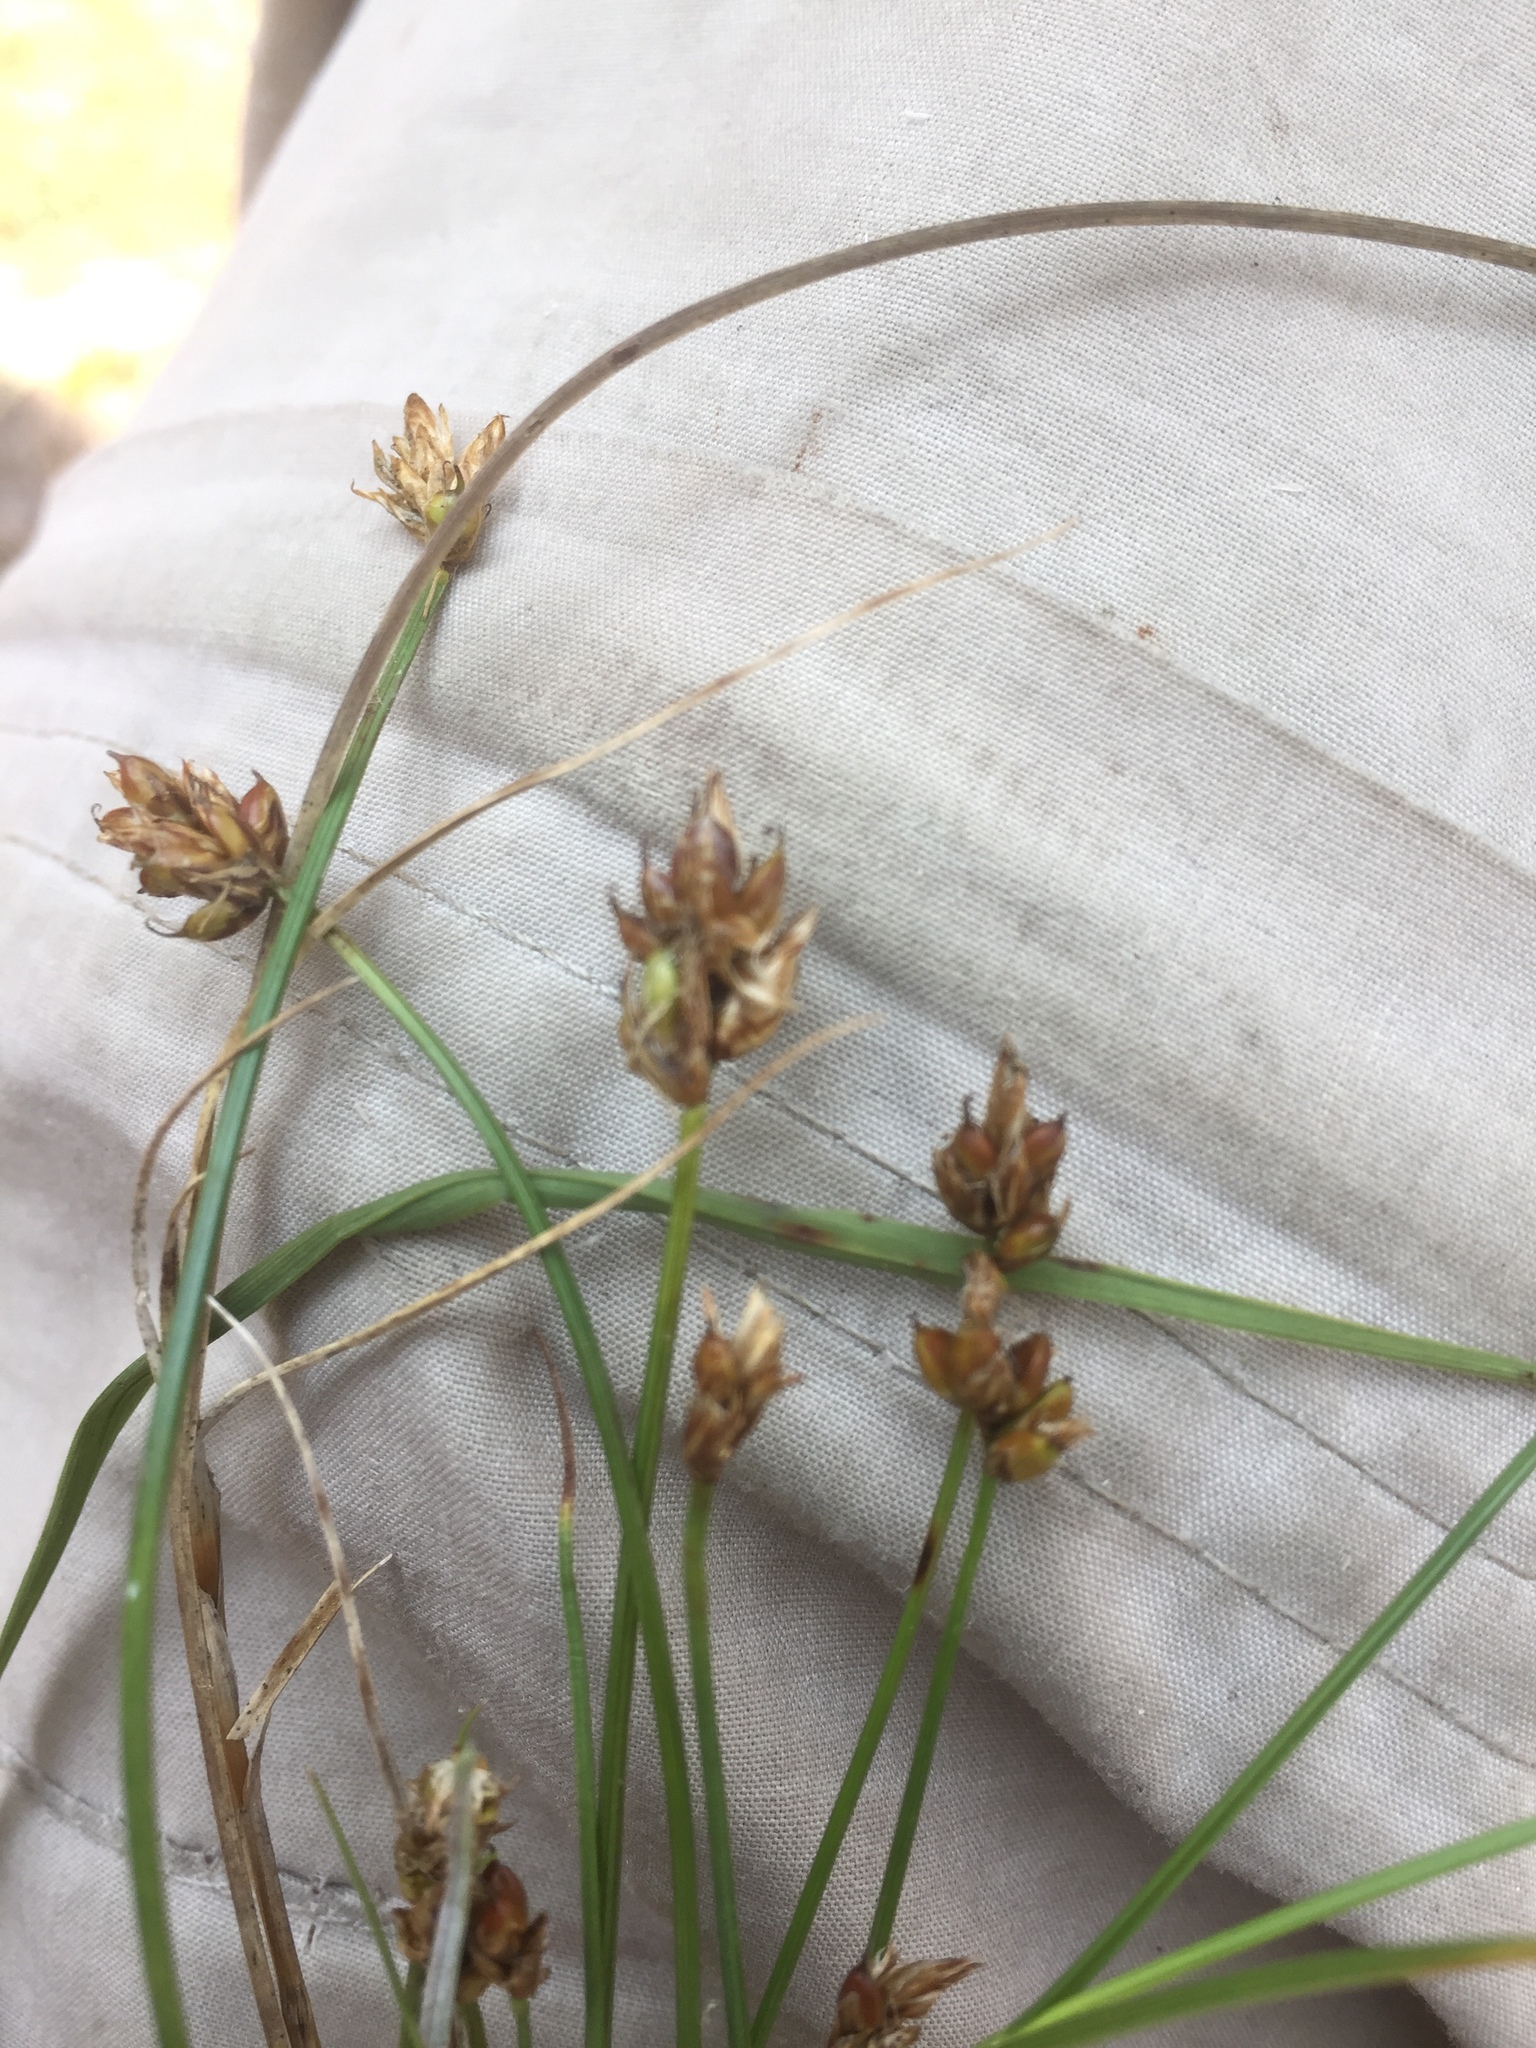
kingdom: Plantae
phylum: Tracheophyta
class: Liliopsida
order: Poales
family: Cyperaceae
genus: Carex
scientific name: Carex chordorrhiza
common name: String sedge
